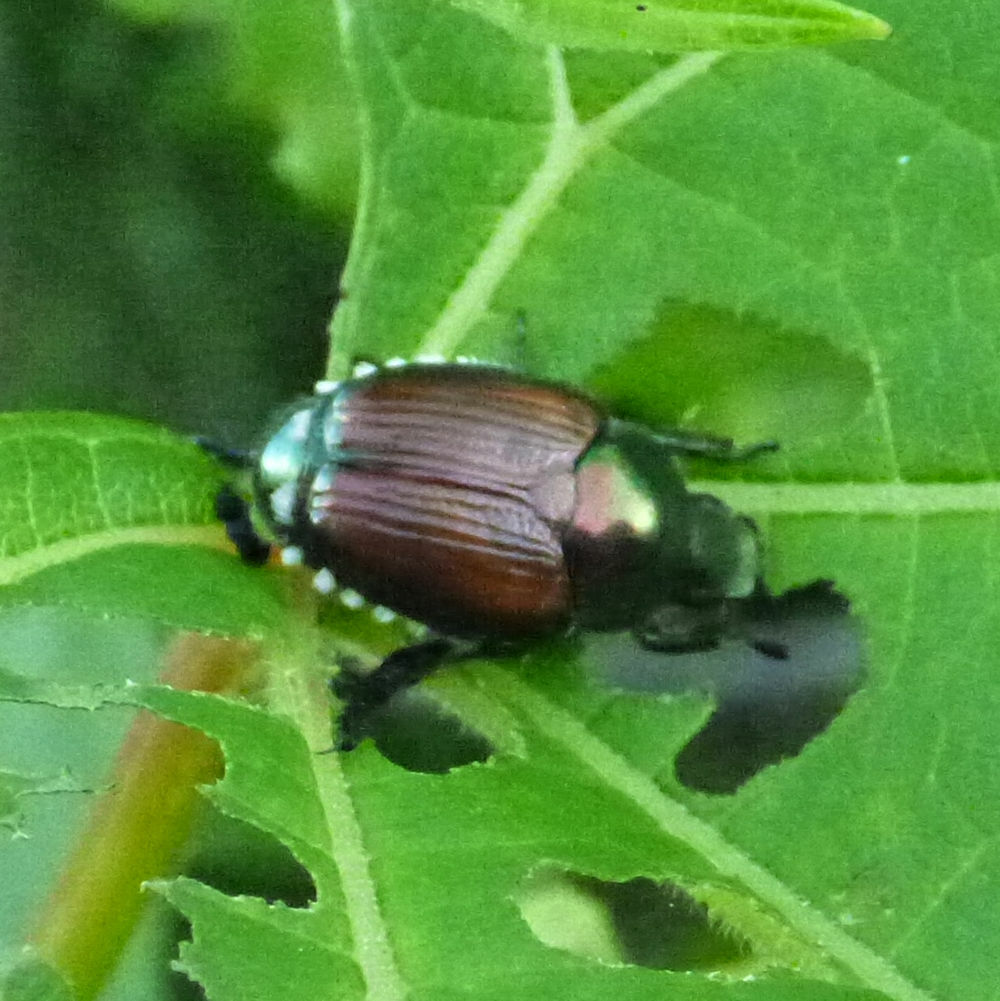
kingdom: Animalia
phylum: Arthropoda
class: Insecta
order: Coleoptera
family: Scarabaeidae
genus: Popillia
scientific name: Popillia japonica
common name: Japanese beetle
